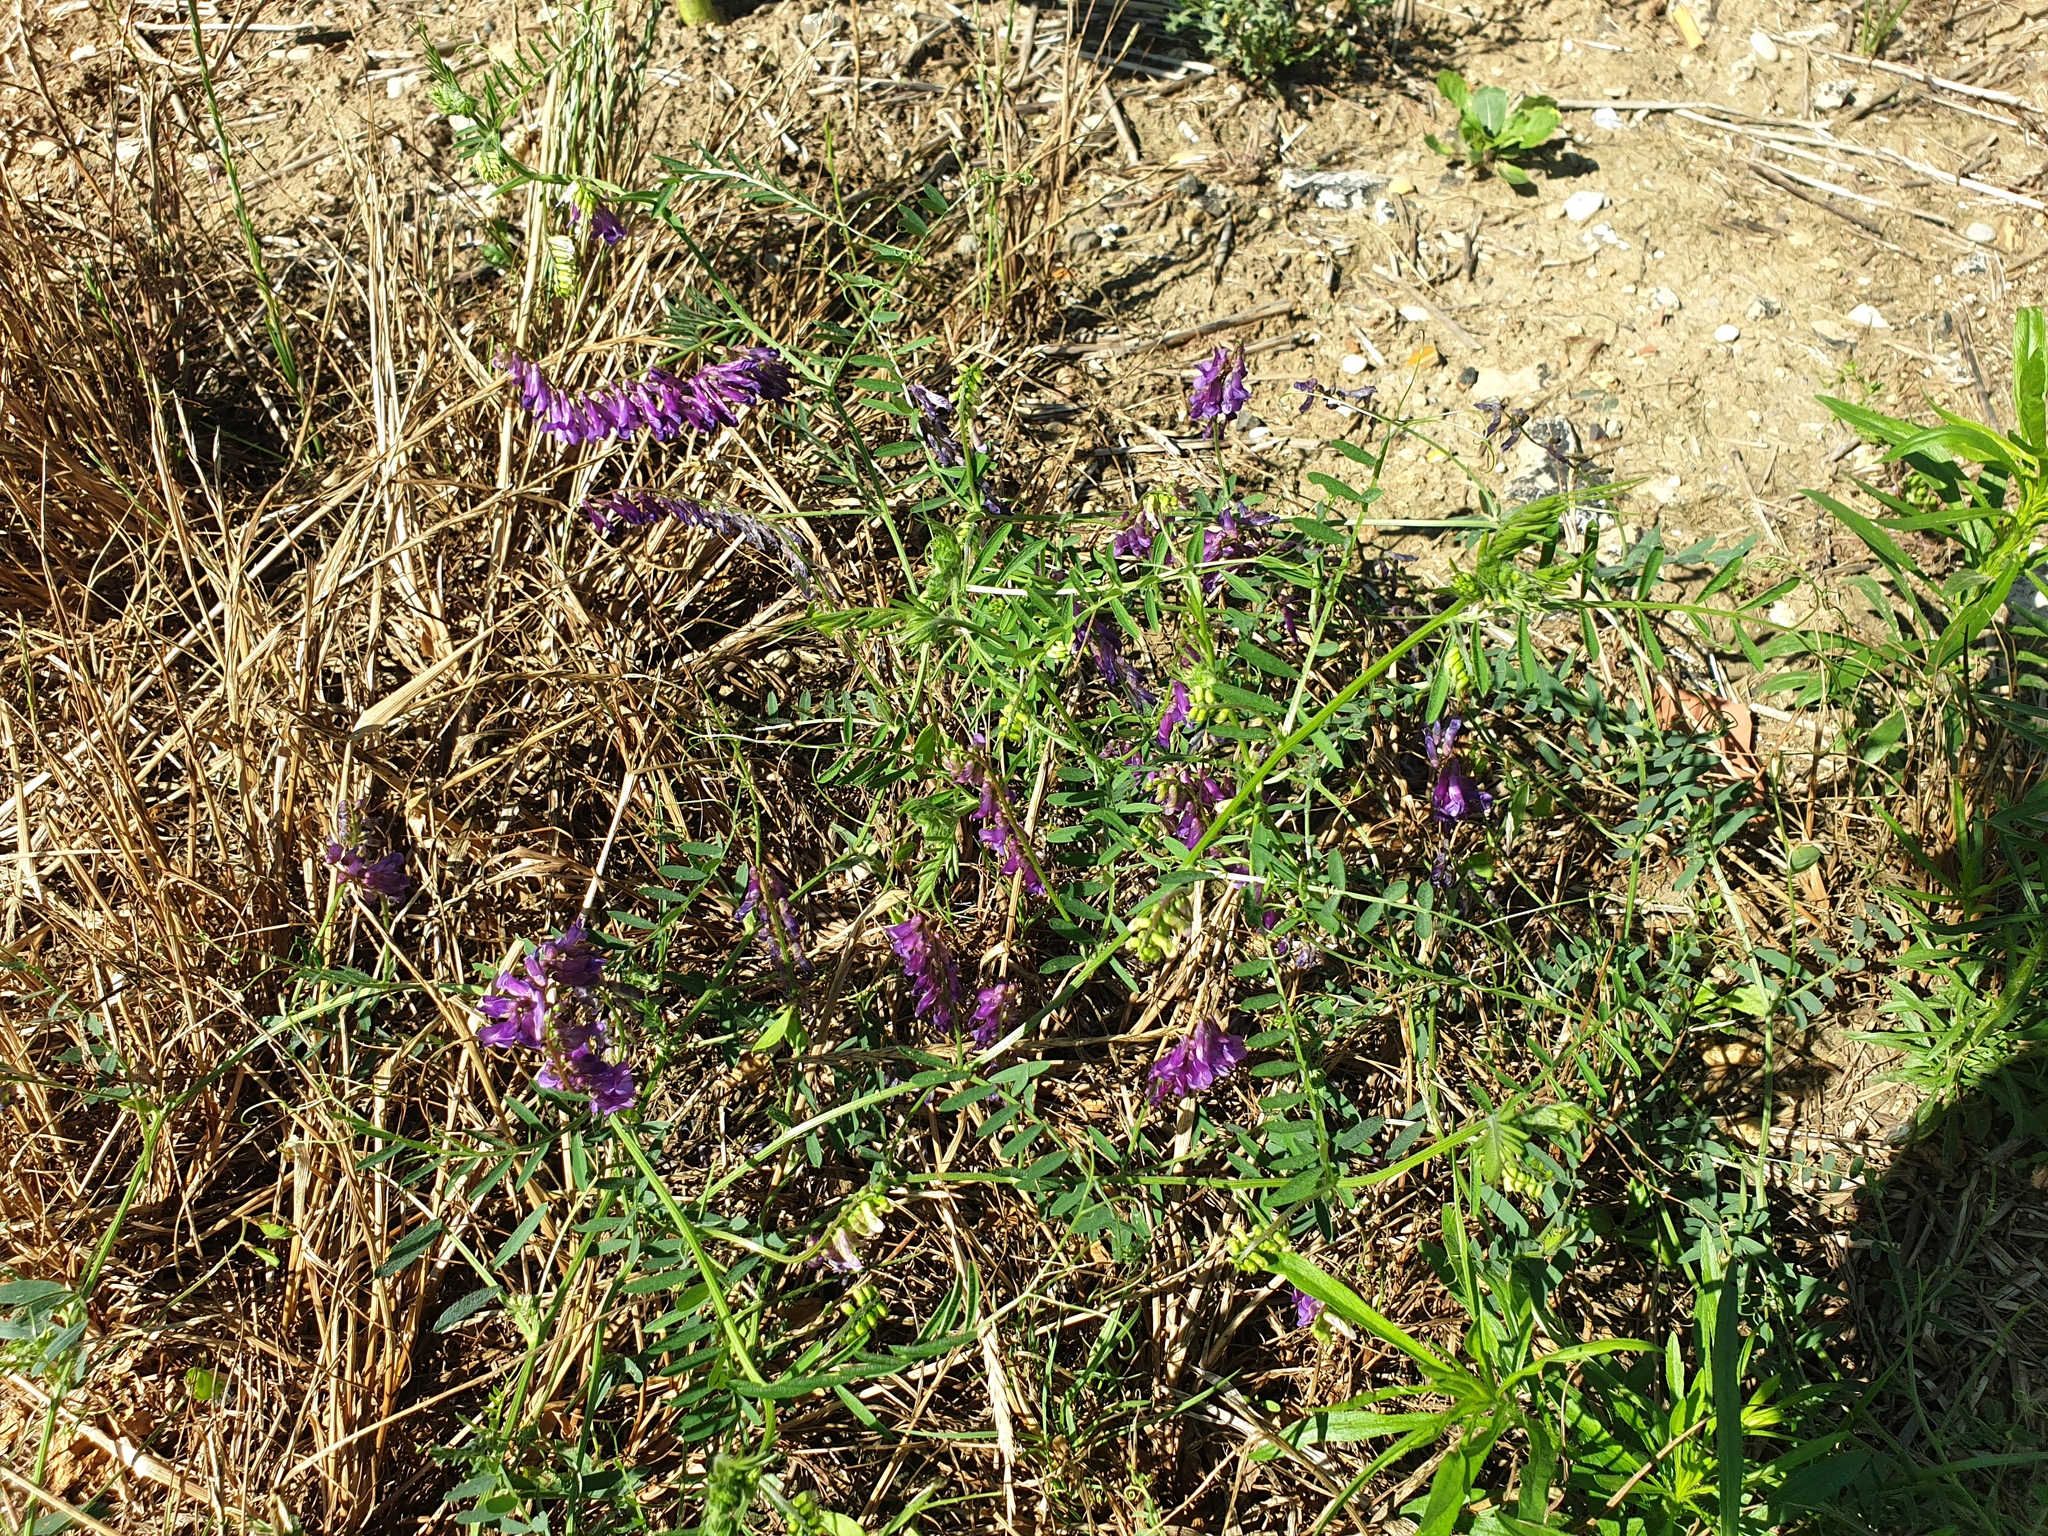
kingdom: Plantae
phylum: Tracheophyta
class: Magnoliopsida
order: Fabales
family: Fabaceae
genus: Vicia
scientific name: Vicia villosa
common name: Fodder vetch
